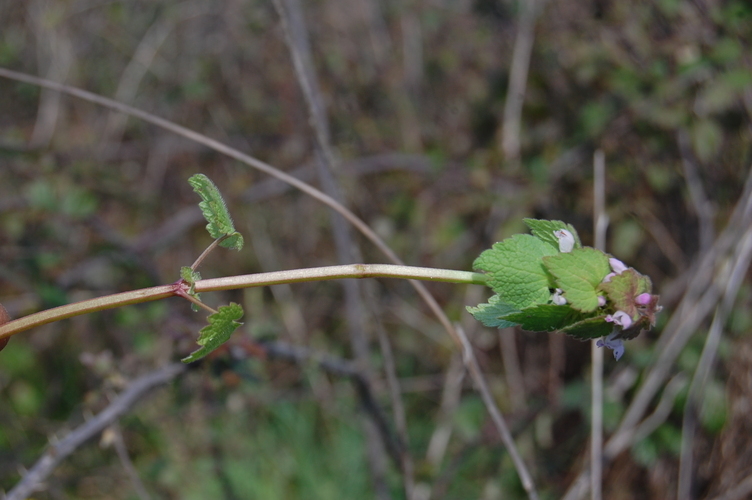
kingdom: Plantae
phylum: Tracheophyta
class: Magnoliopsida
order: Lamiales
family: Lamiaceae
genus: Lamium
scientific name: Lamium purpureum
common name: Red dead-nettle
